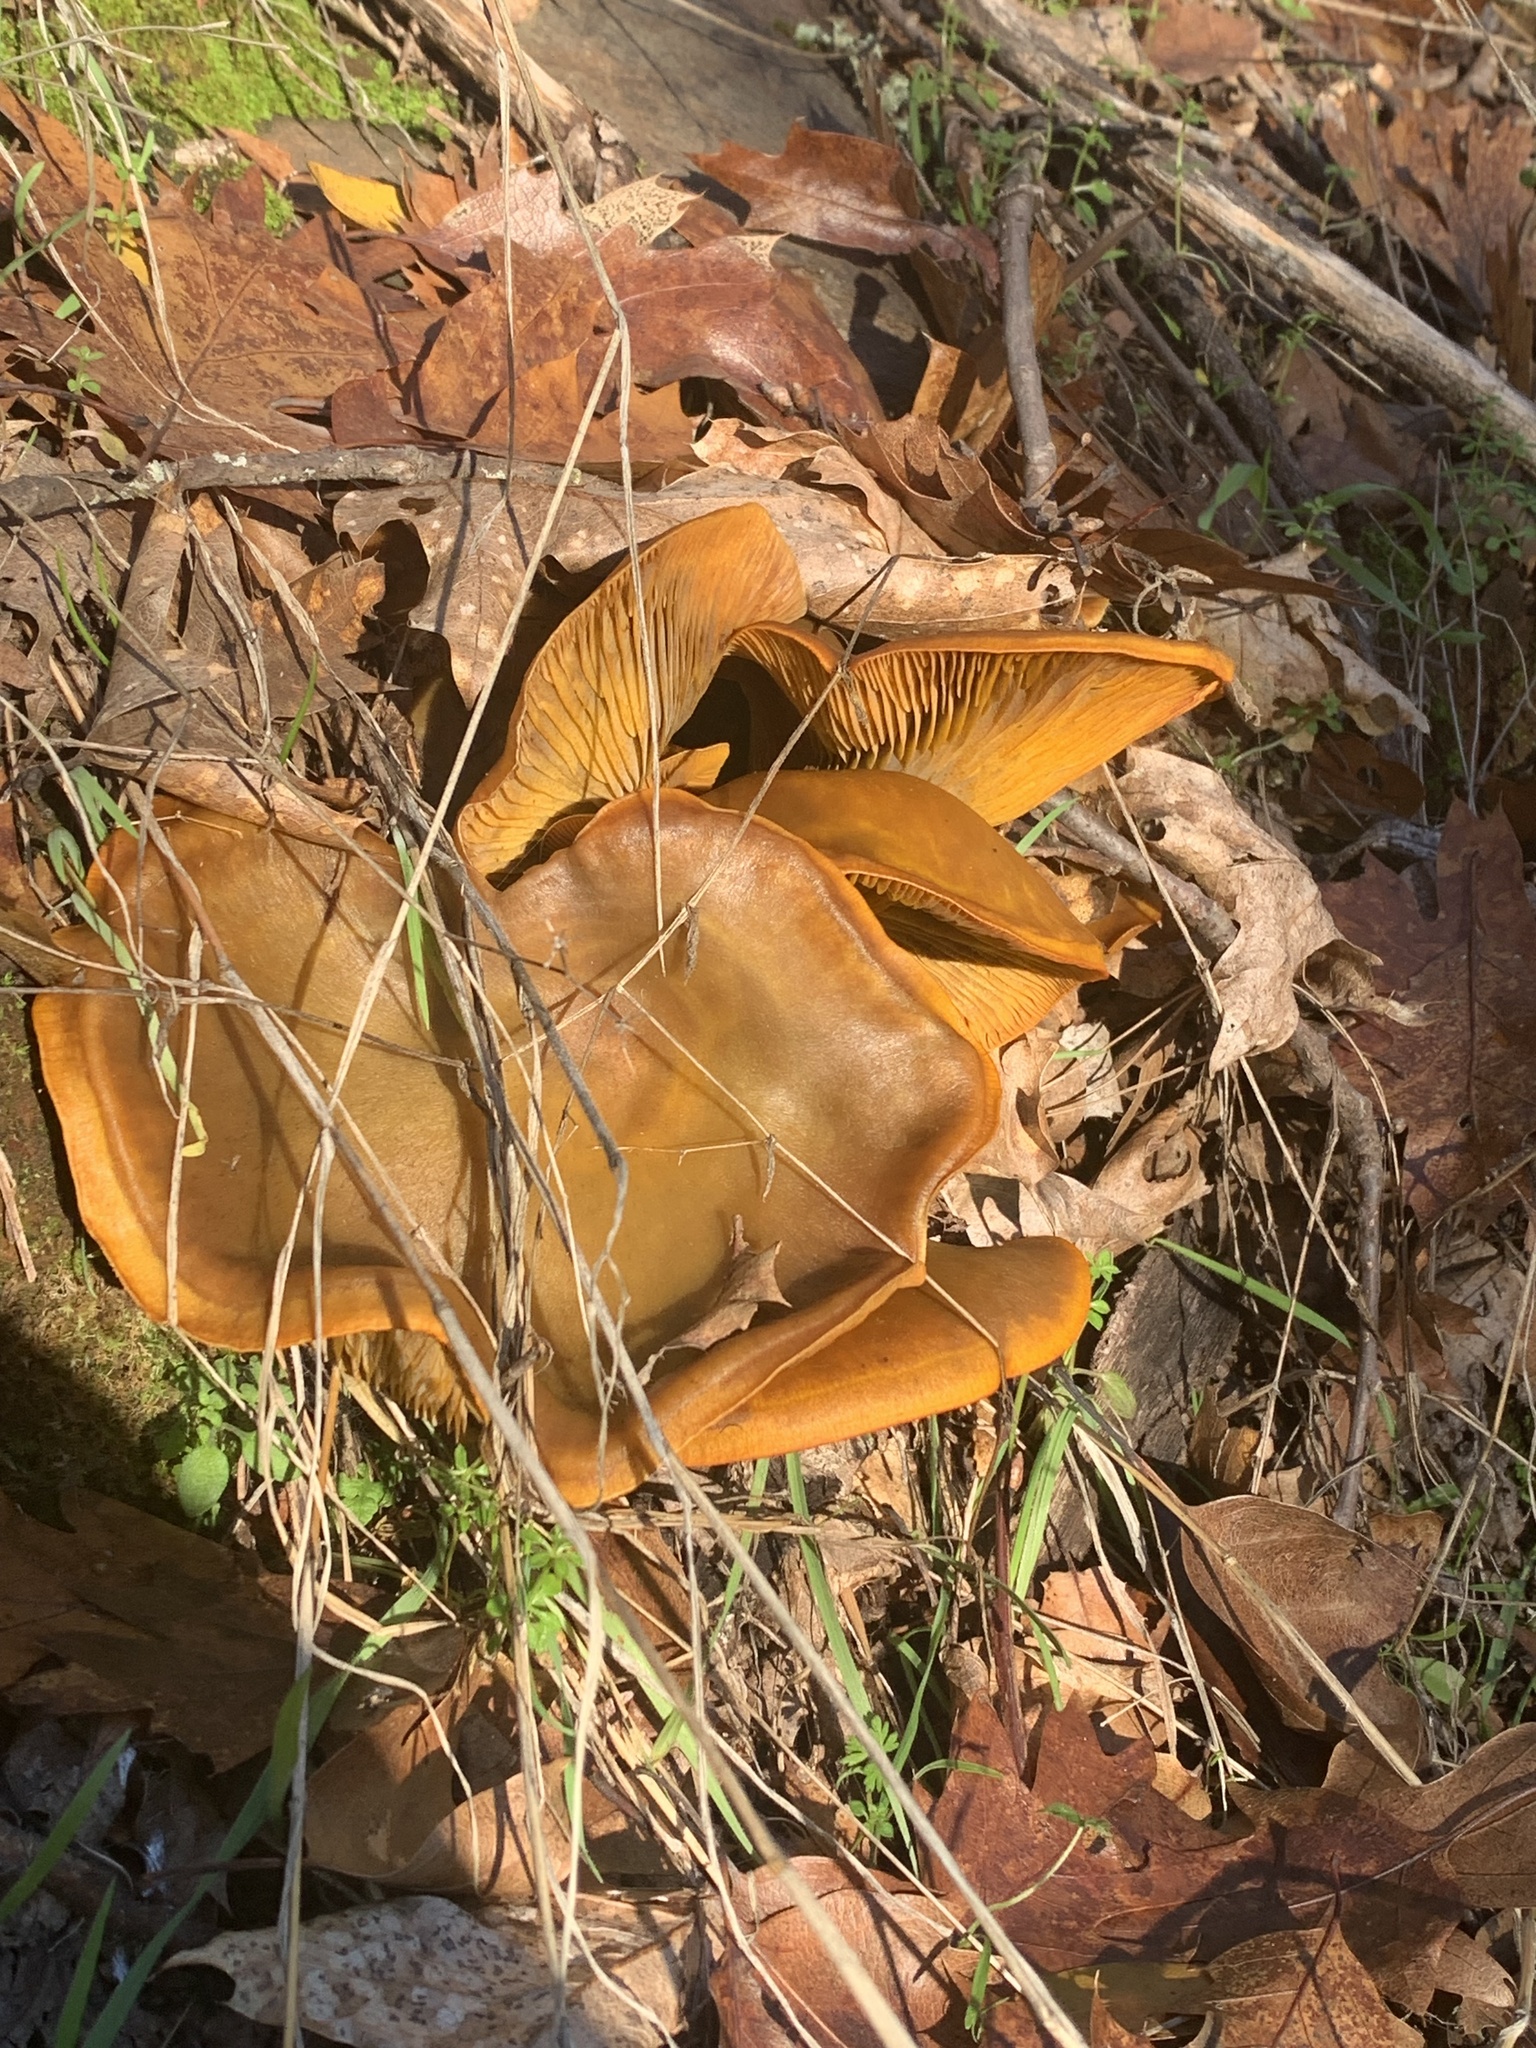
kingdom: Fungi
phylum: Basidiomycota
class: Agaricomycetes
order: Agaricales
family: Omphalotaceae
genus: Omphalotus
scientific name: Omphalotus olivascens
